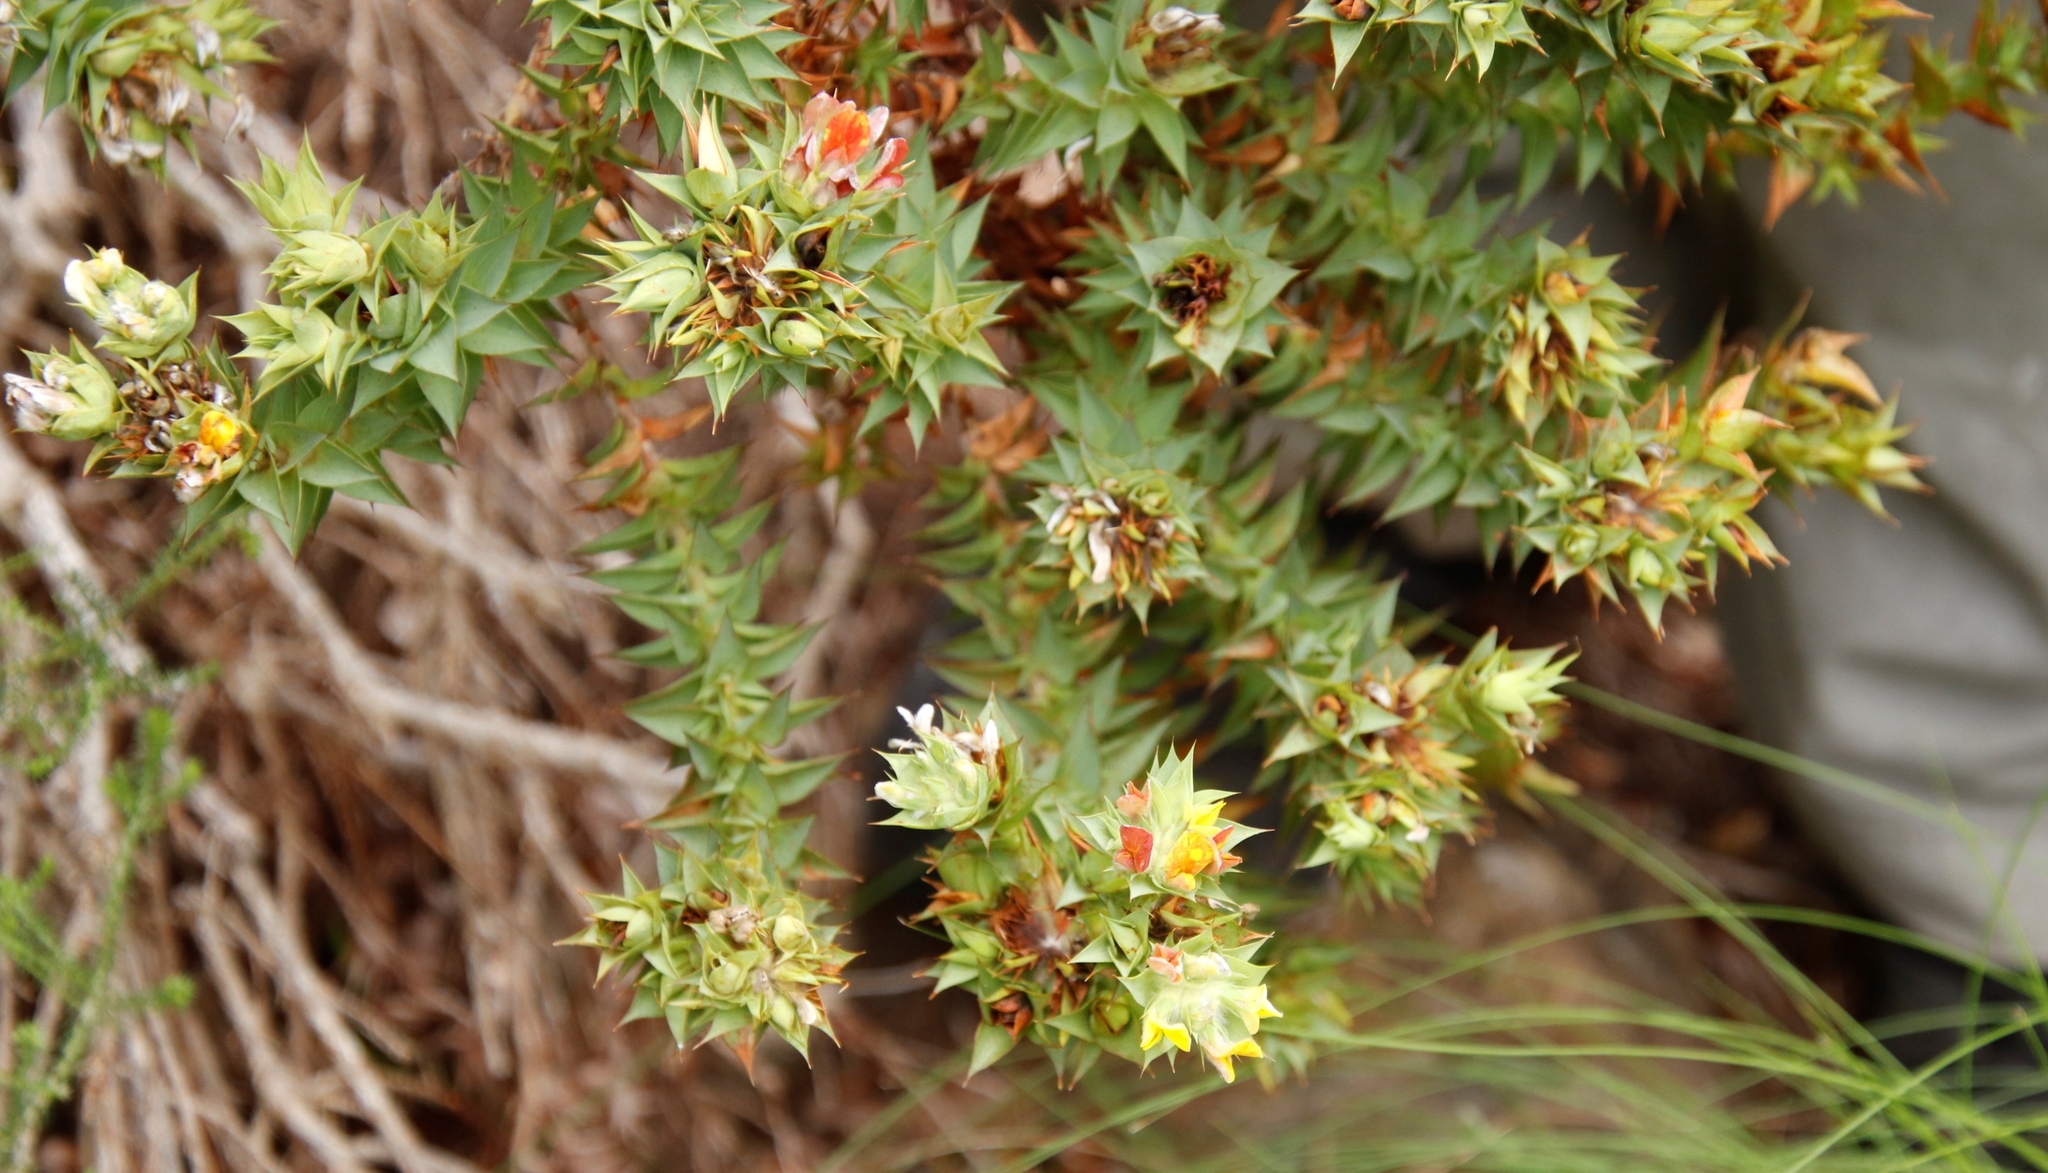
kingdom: Plantae
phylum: Tracheophyta
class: Magnoliopsida
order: Fabales
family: Fabaceae
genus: Aspalathus
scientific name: Aspalathus cordata
